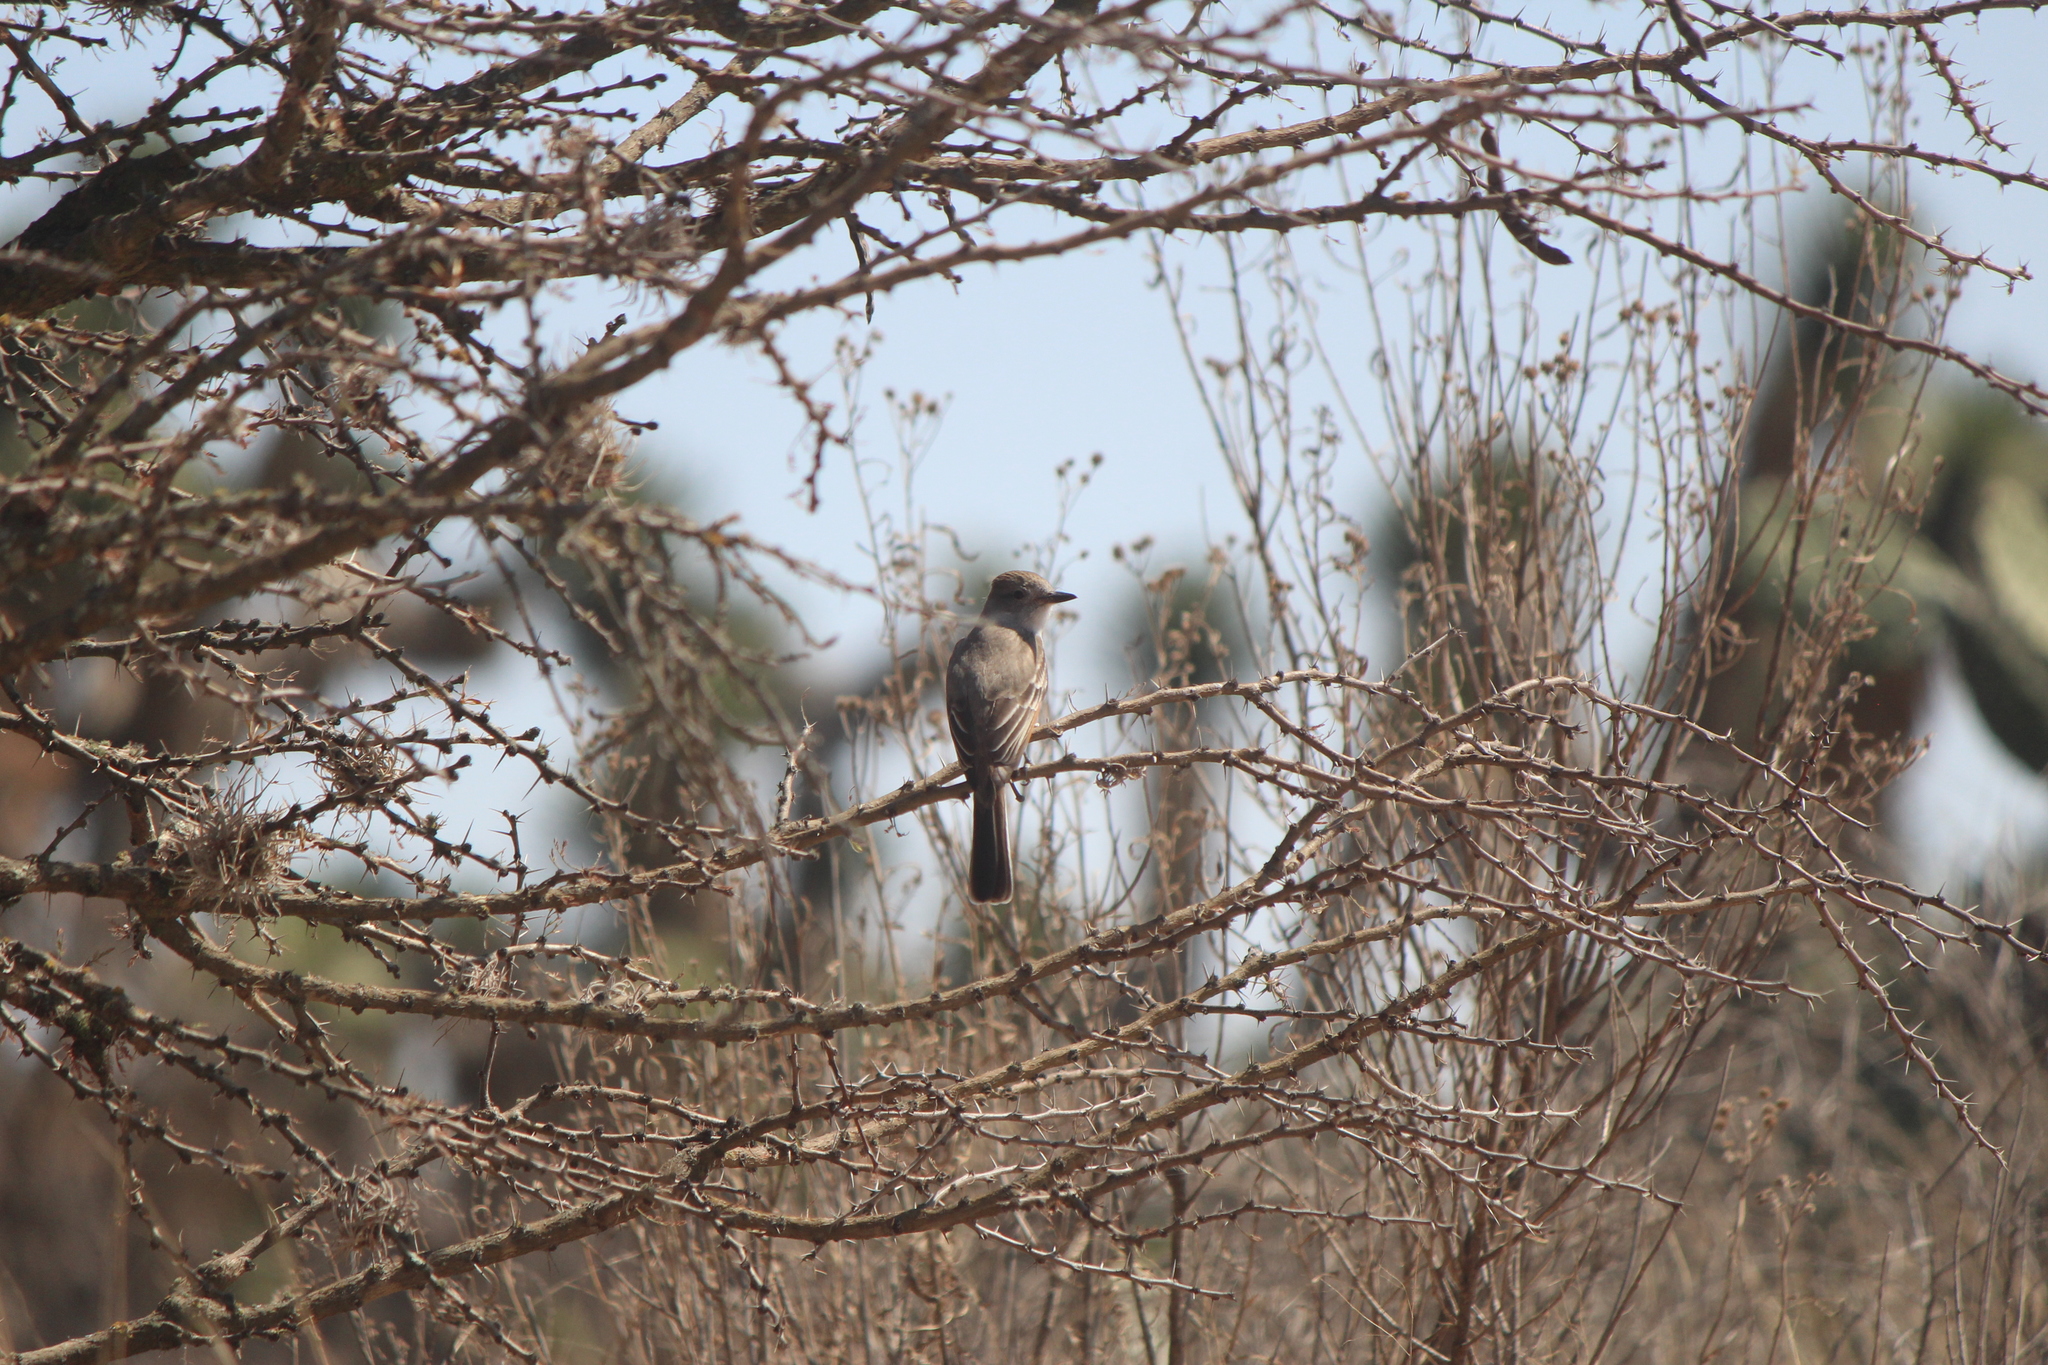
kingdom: Animalia
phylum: Chordata
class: Aves
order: Passeriformes
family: Tyrannidae
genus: Myiarchus
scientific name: Myiarchus cinerascens
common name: Ash-throated flycatcher
